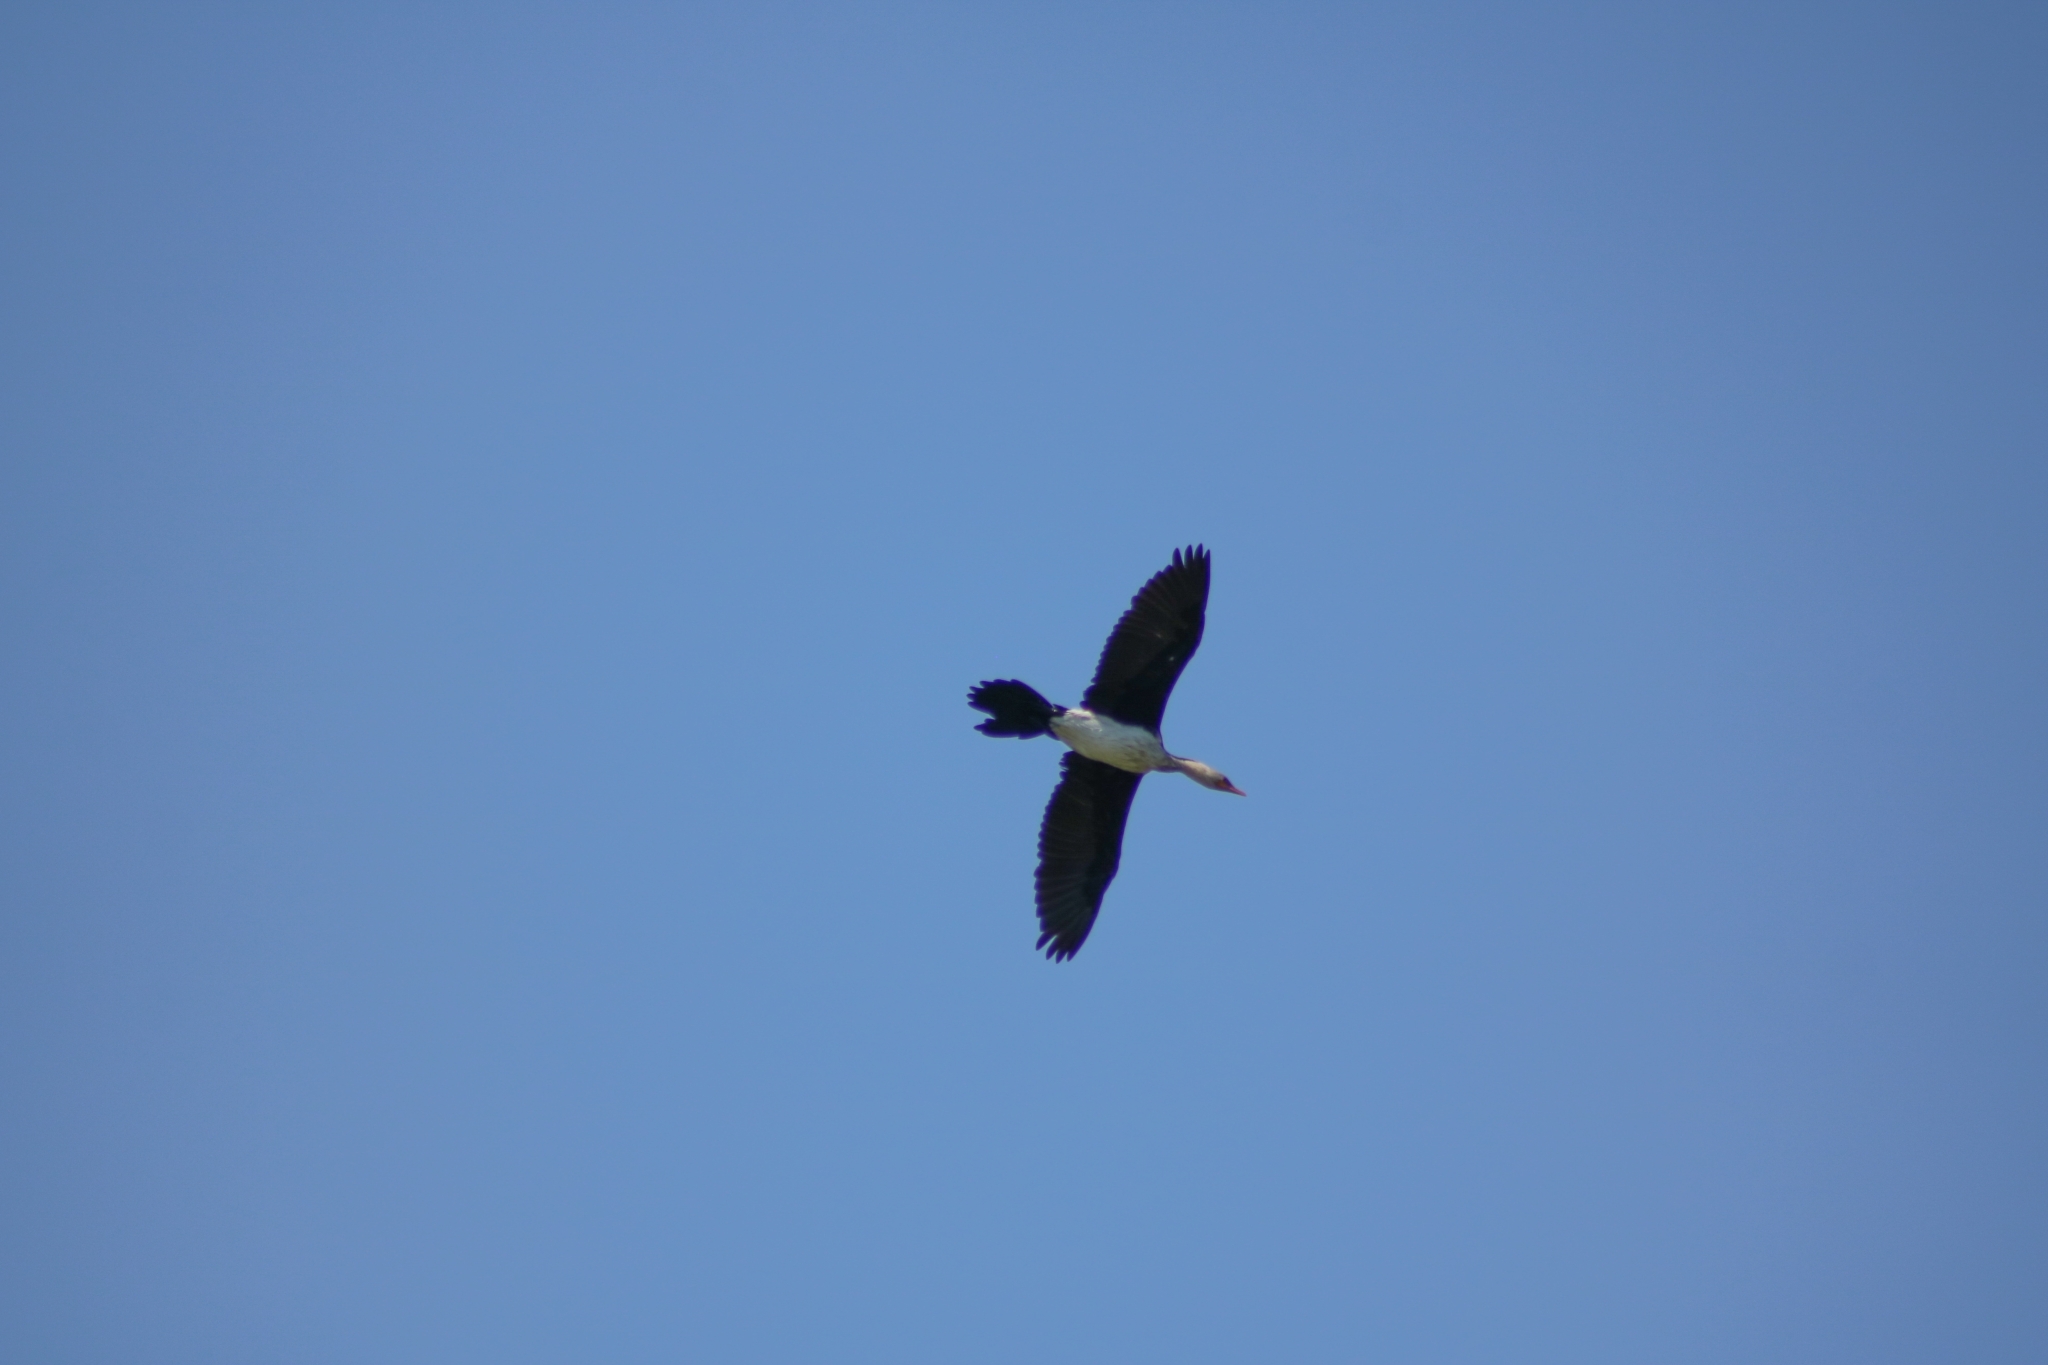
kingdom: Animalia
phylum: Chordata
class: Aves
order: Suliformes
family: Phalacrocoracidae
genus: Microcarbo
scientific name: Microcarbo melanoleucos
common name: Little pied cormorant
